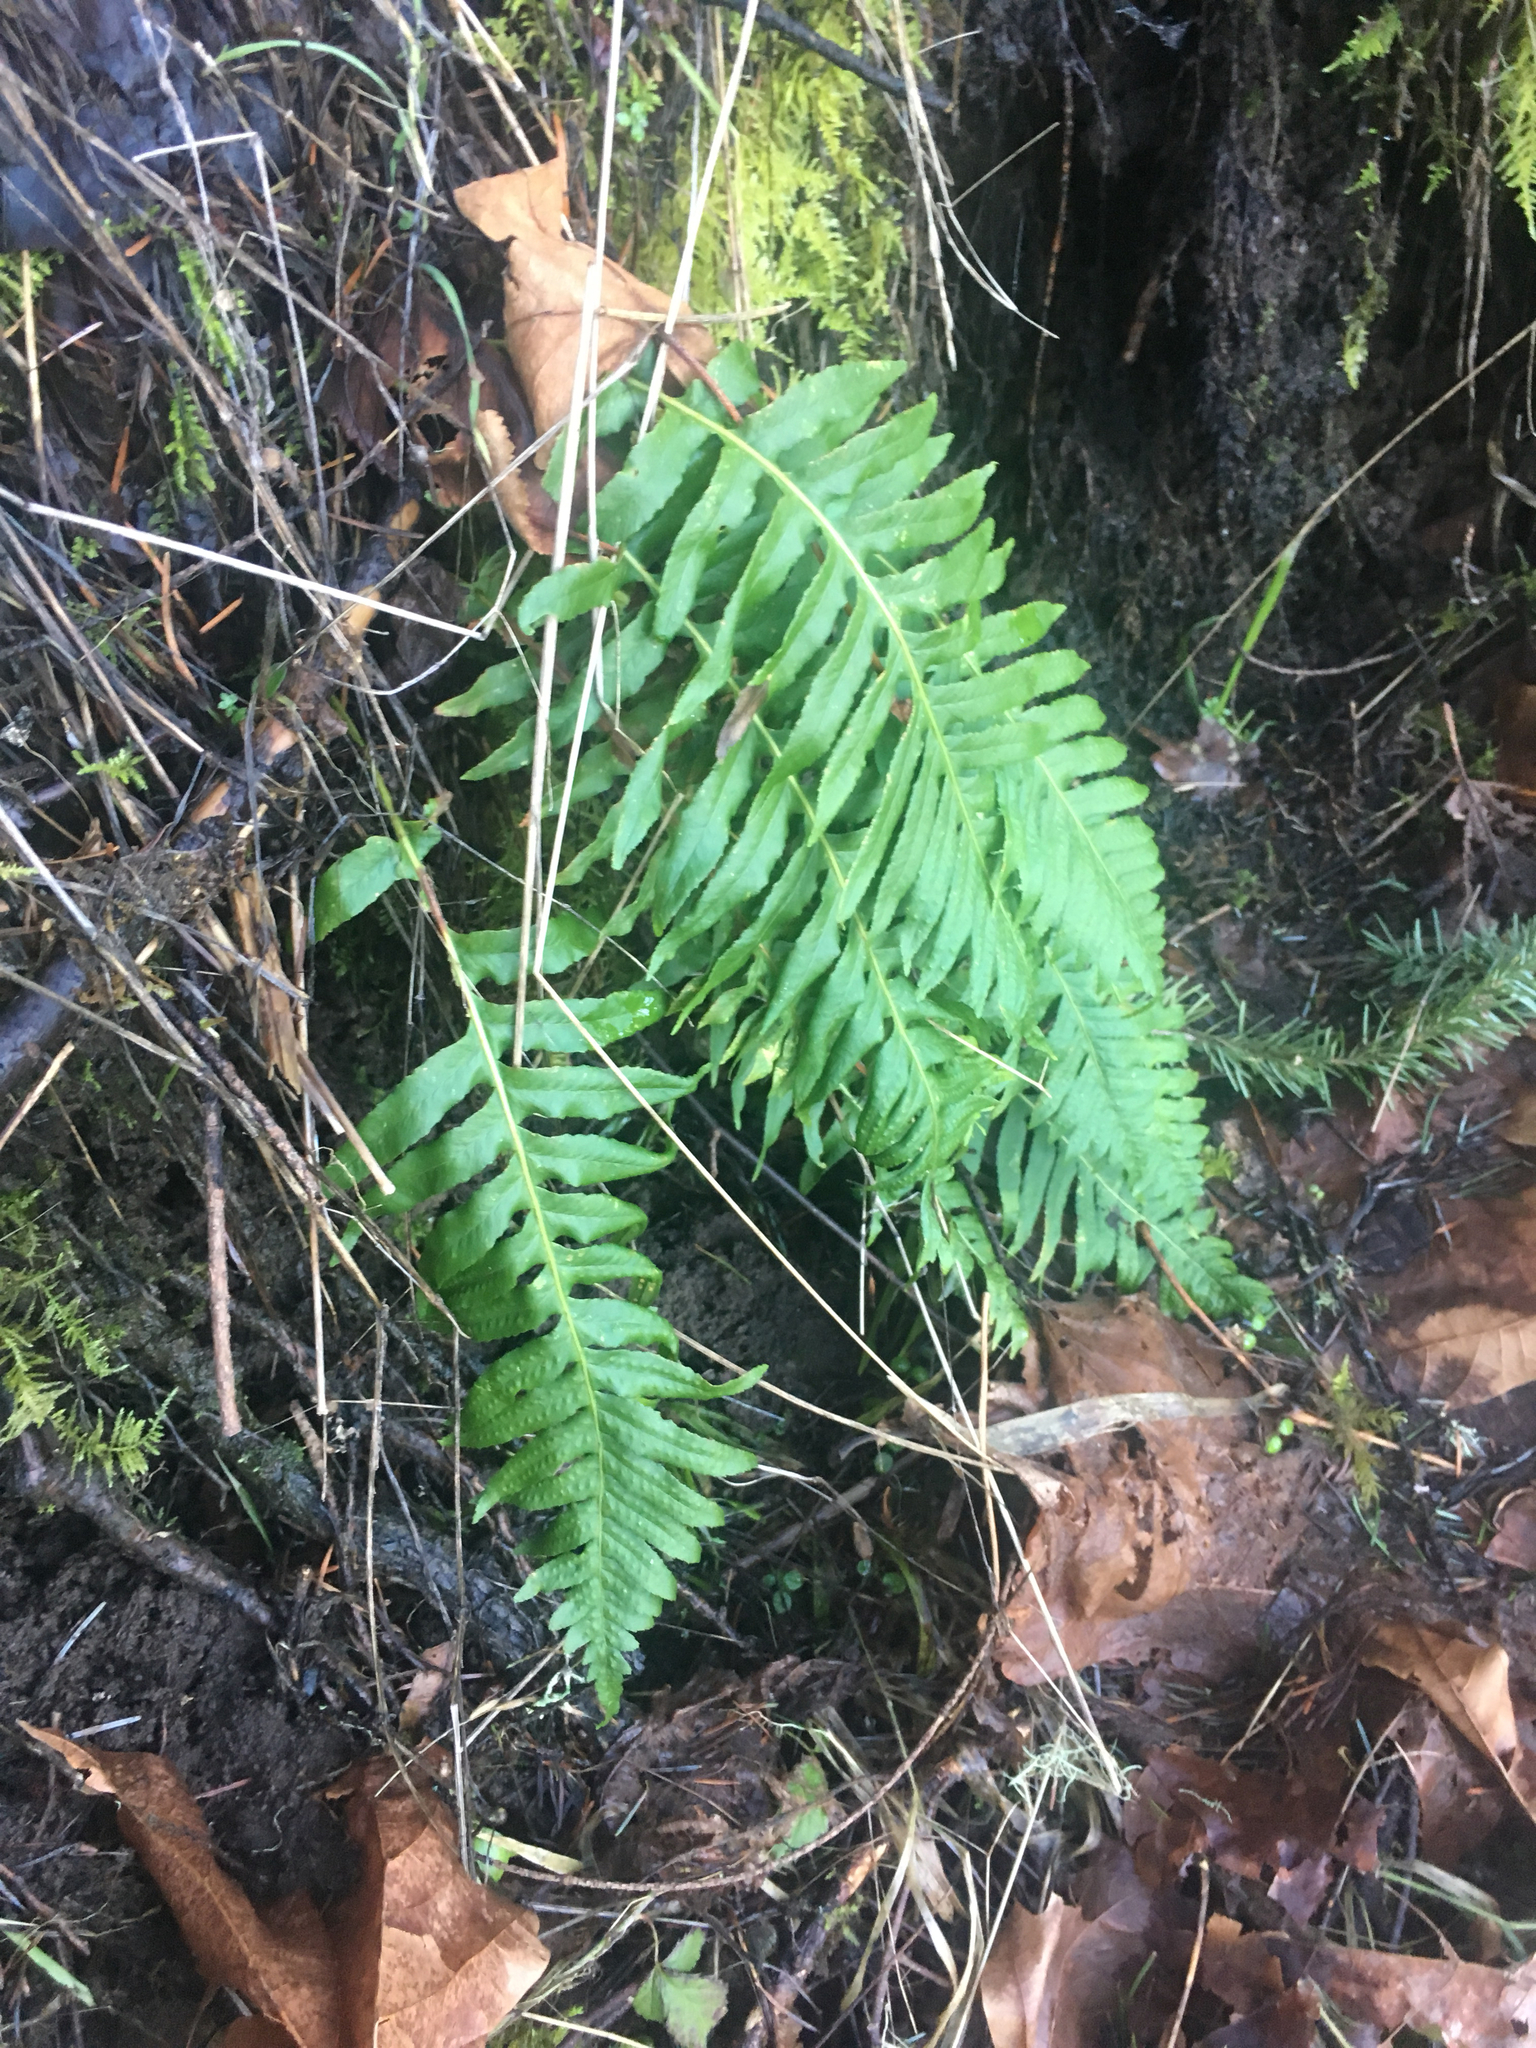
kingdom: Plantae
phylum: Tracheophyta
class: Polypodiopsida
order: Polypodiales
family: Polypodiaceae
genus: Polypodium
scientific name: Polypodium glycyrrhiza
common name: Licorice fern
